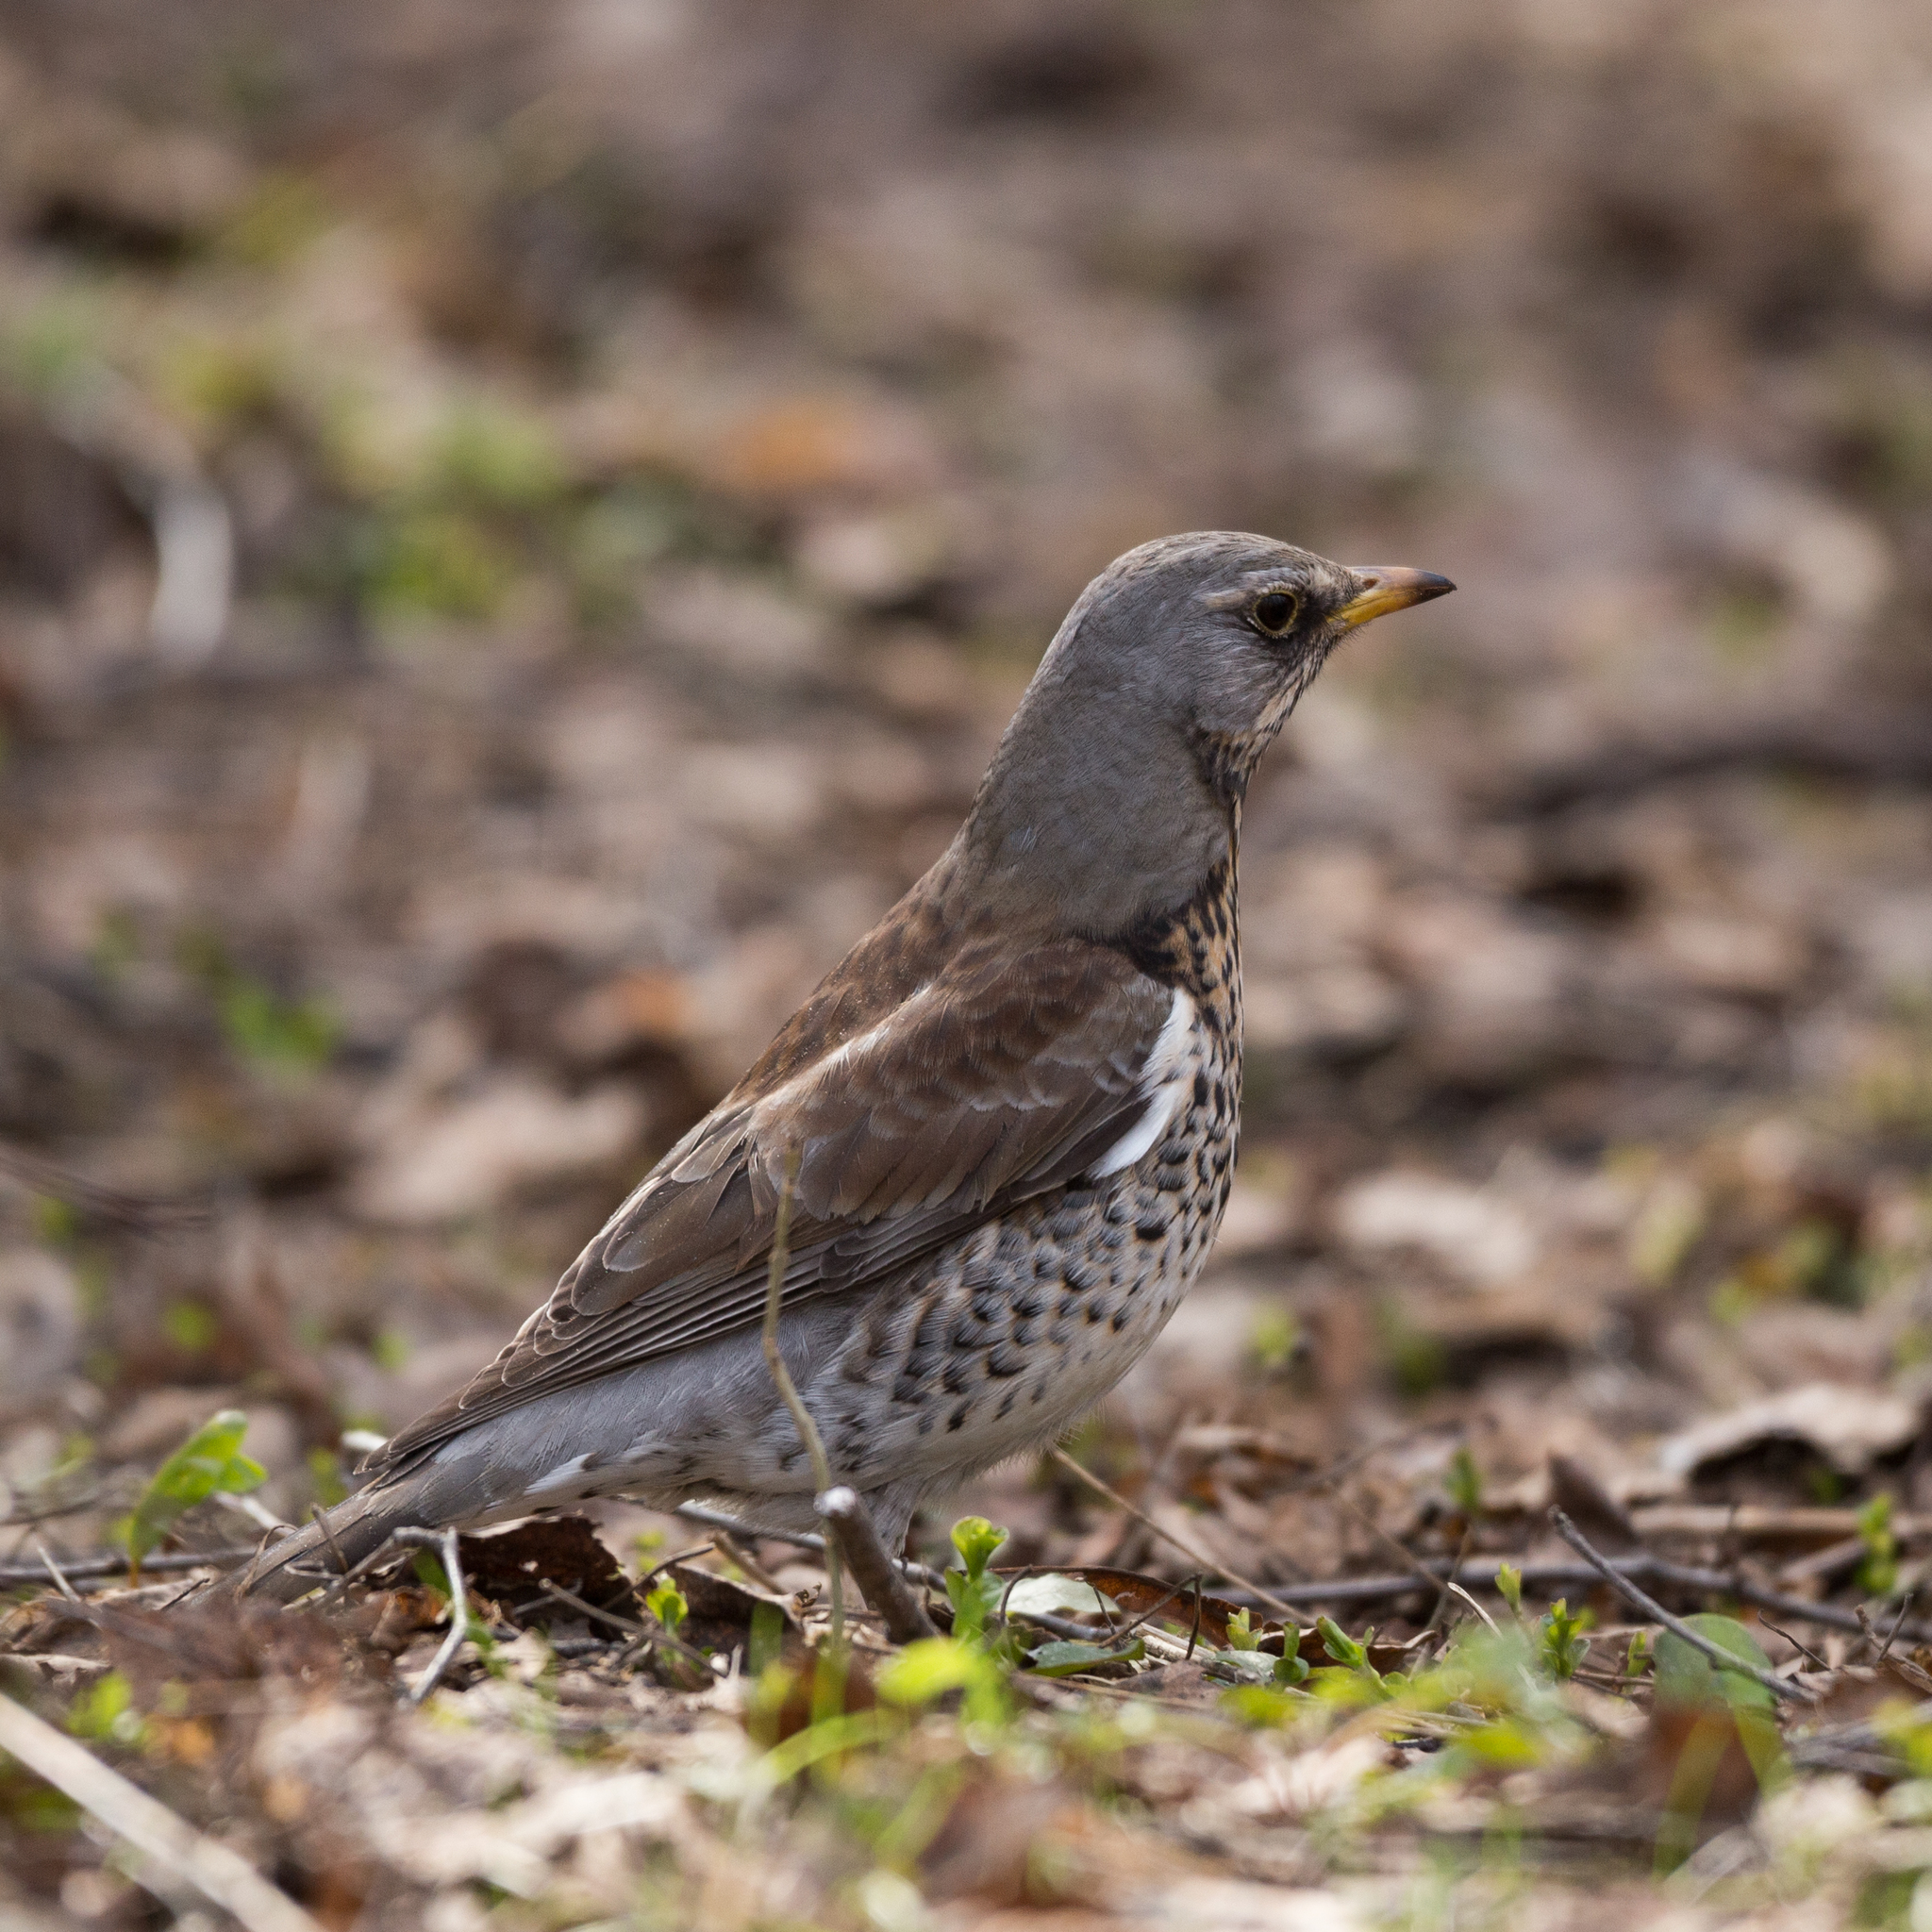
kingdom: Animalia
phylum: Chordata
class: Aves
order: Passeriformes
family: Turdidae
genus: Turdus
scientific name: Turdus pilaris
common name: Fieldfare
